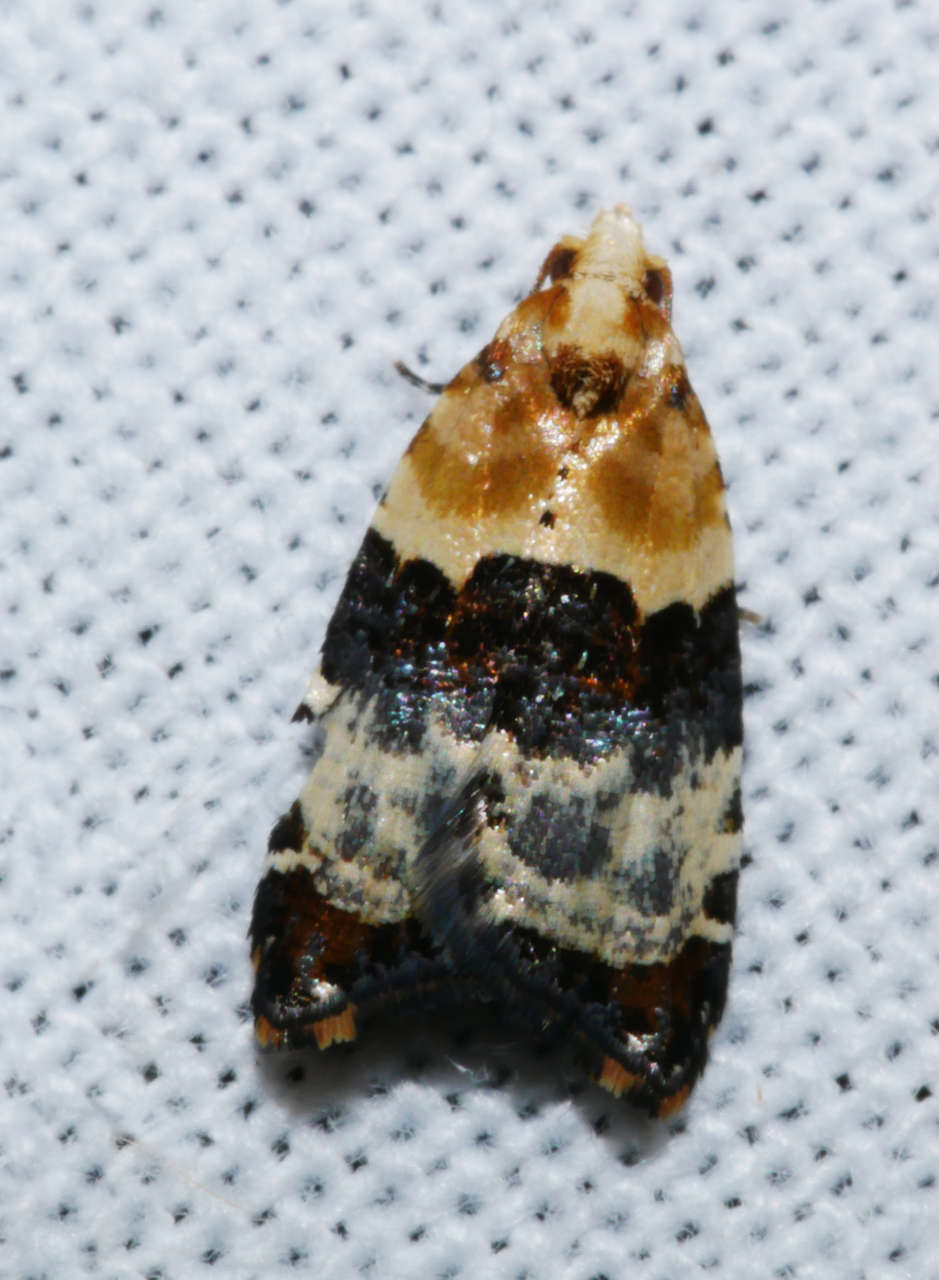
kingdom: Animalia
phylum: Arthropoda
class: Insecta
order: Lepidoptera
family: Tortricidae
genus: Authomaema
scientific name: Authomaema pentacosma
